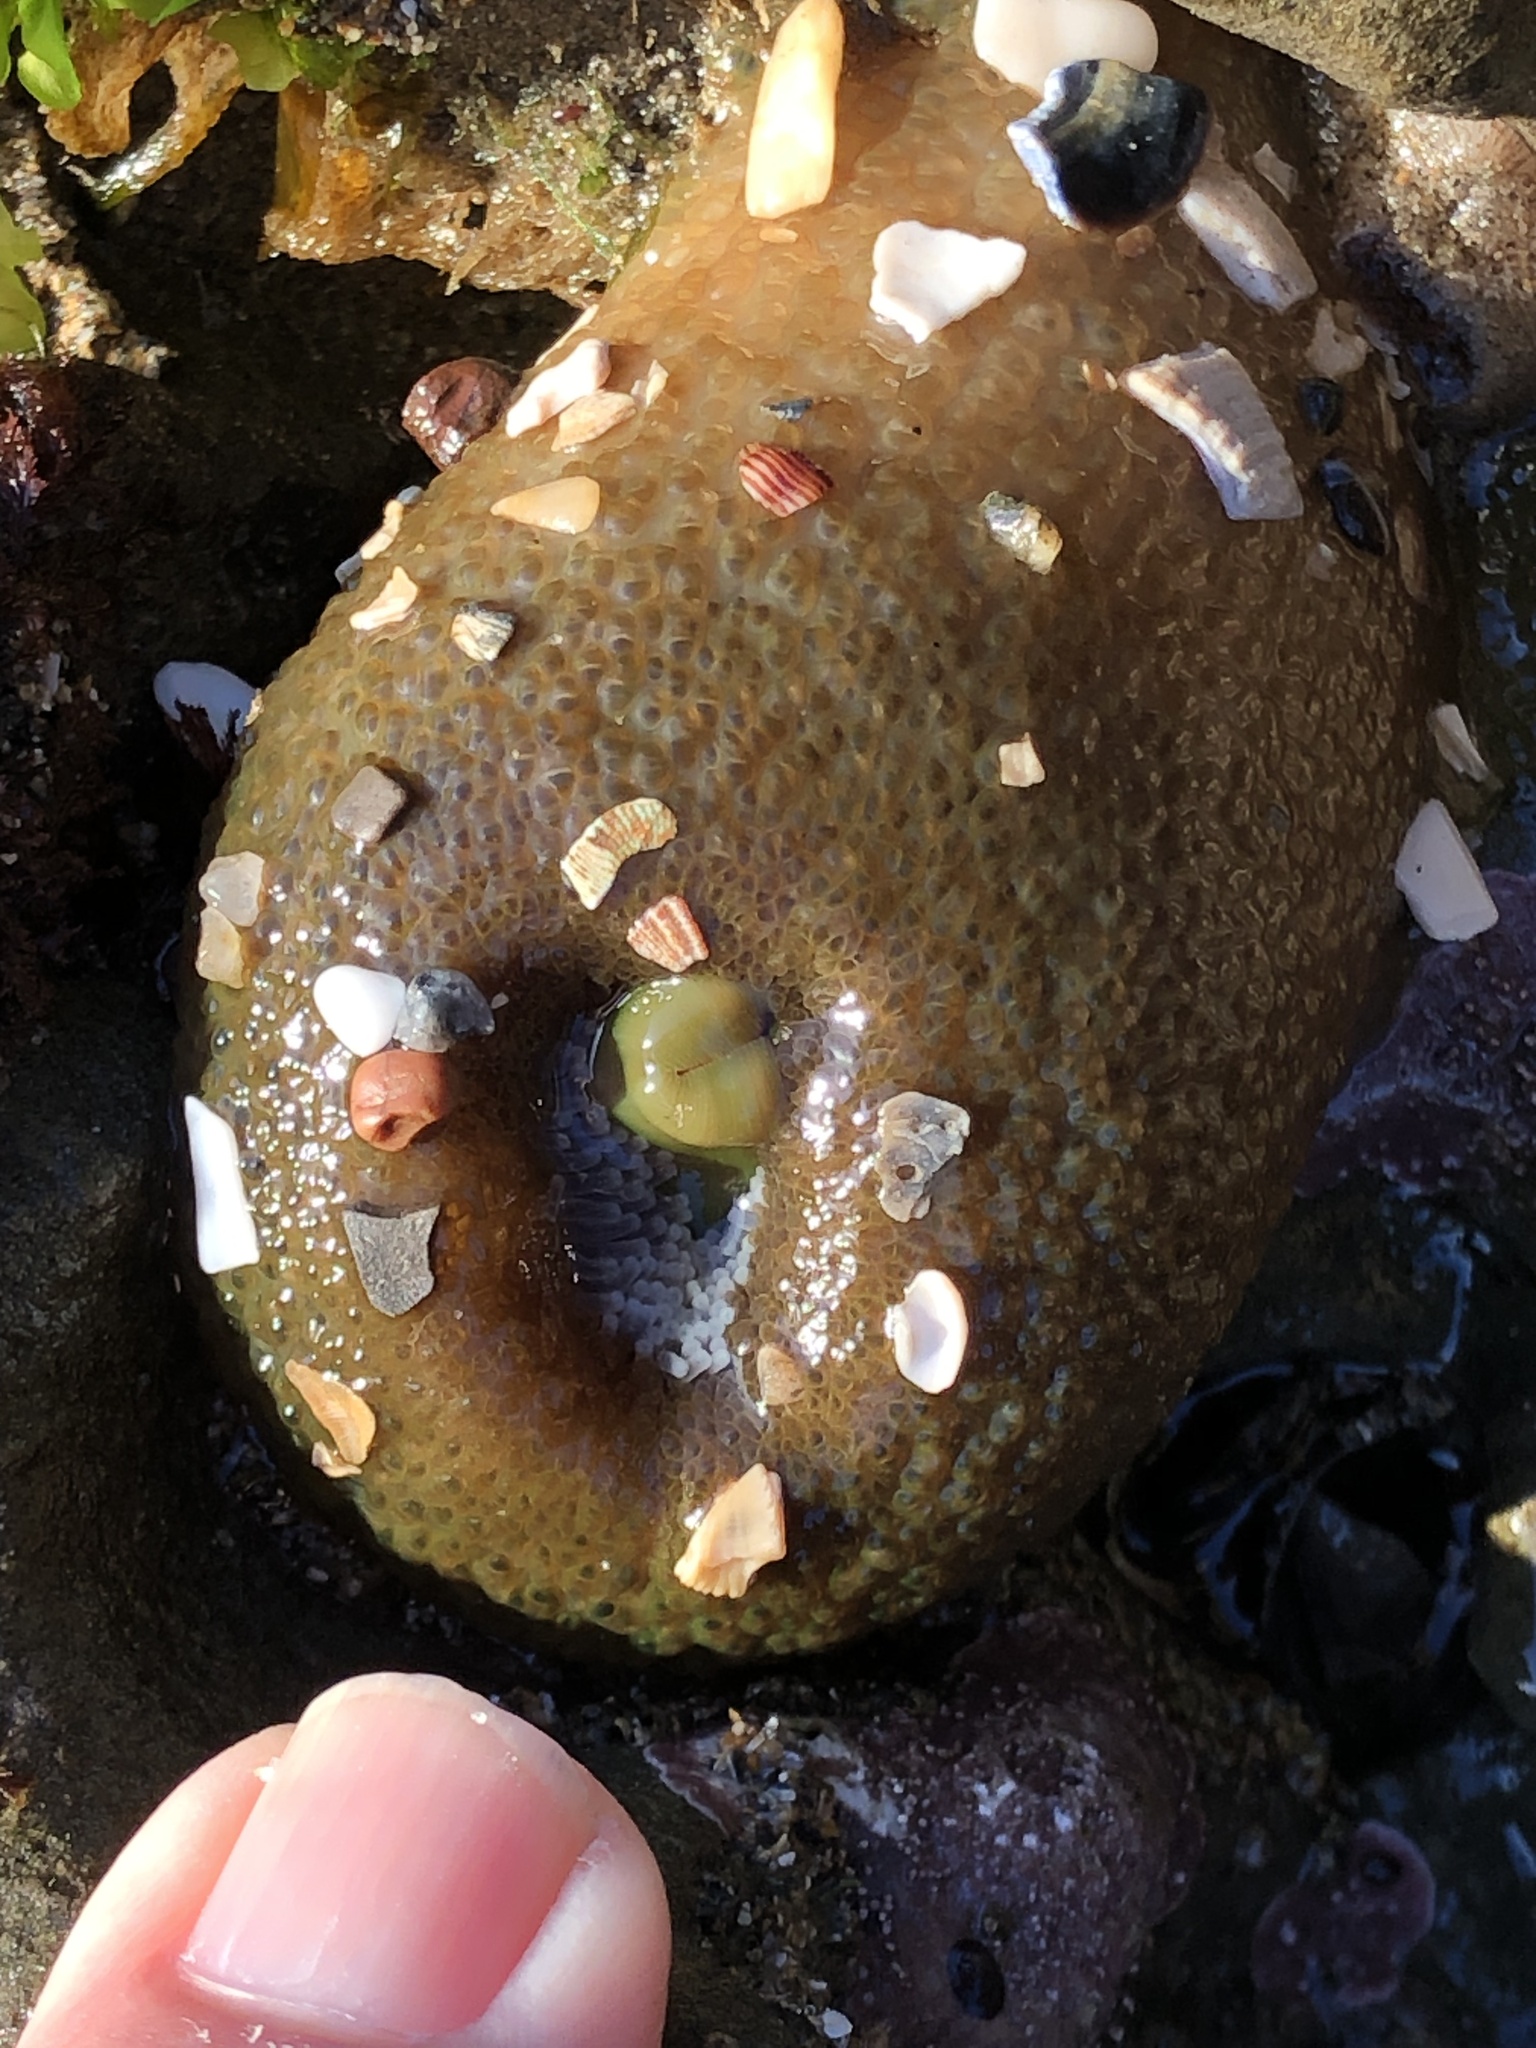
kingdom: Animalia
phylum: Cnidaria
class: Anthozoa
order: Actiniaria
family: Actiniidae
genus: Anthopleura
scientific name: Anthopleura xanthogrammica
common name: Giant green anemone
